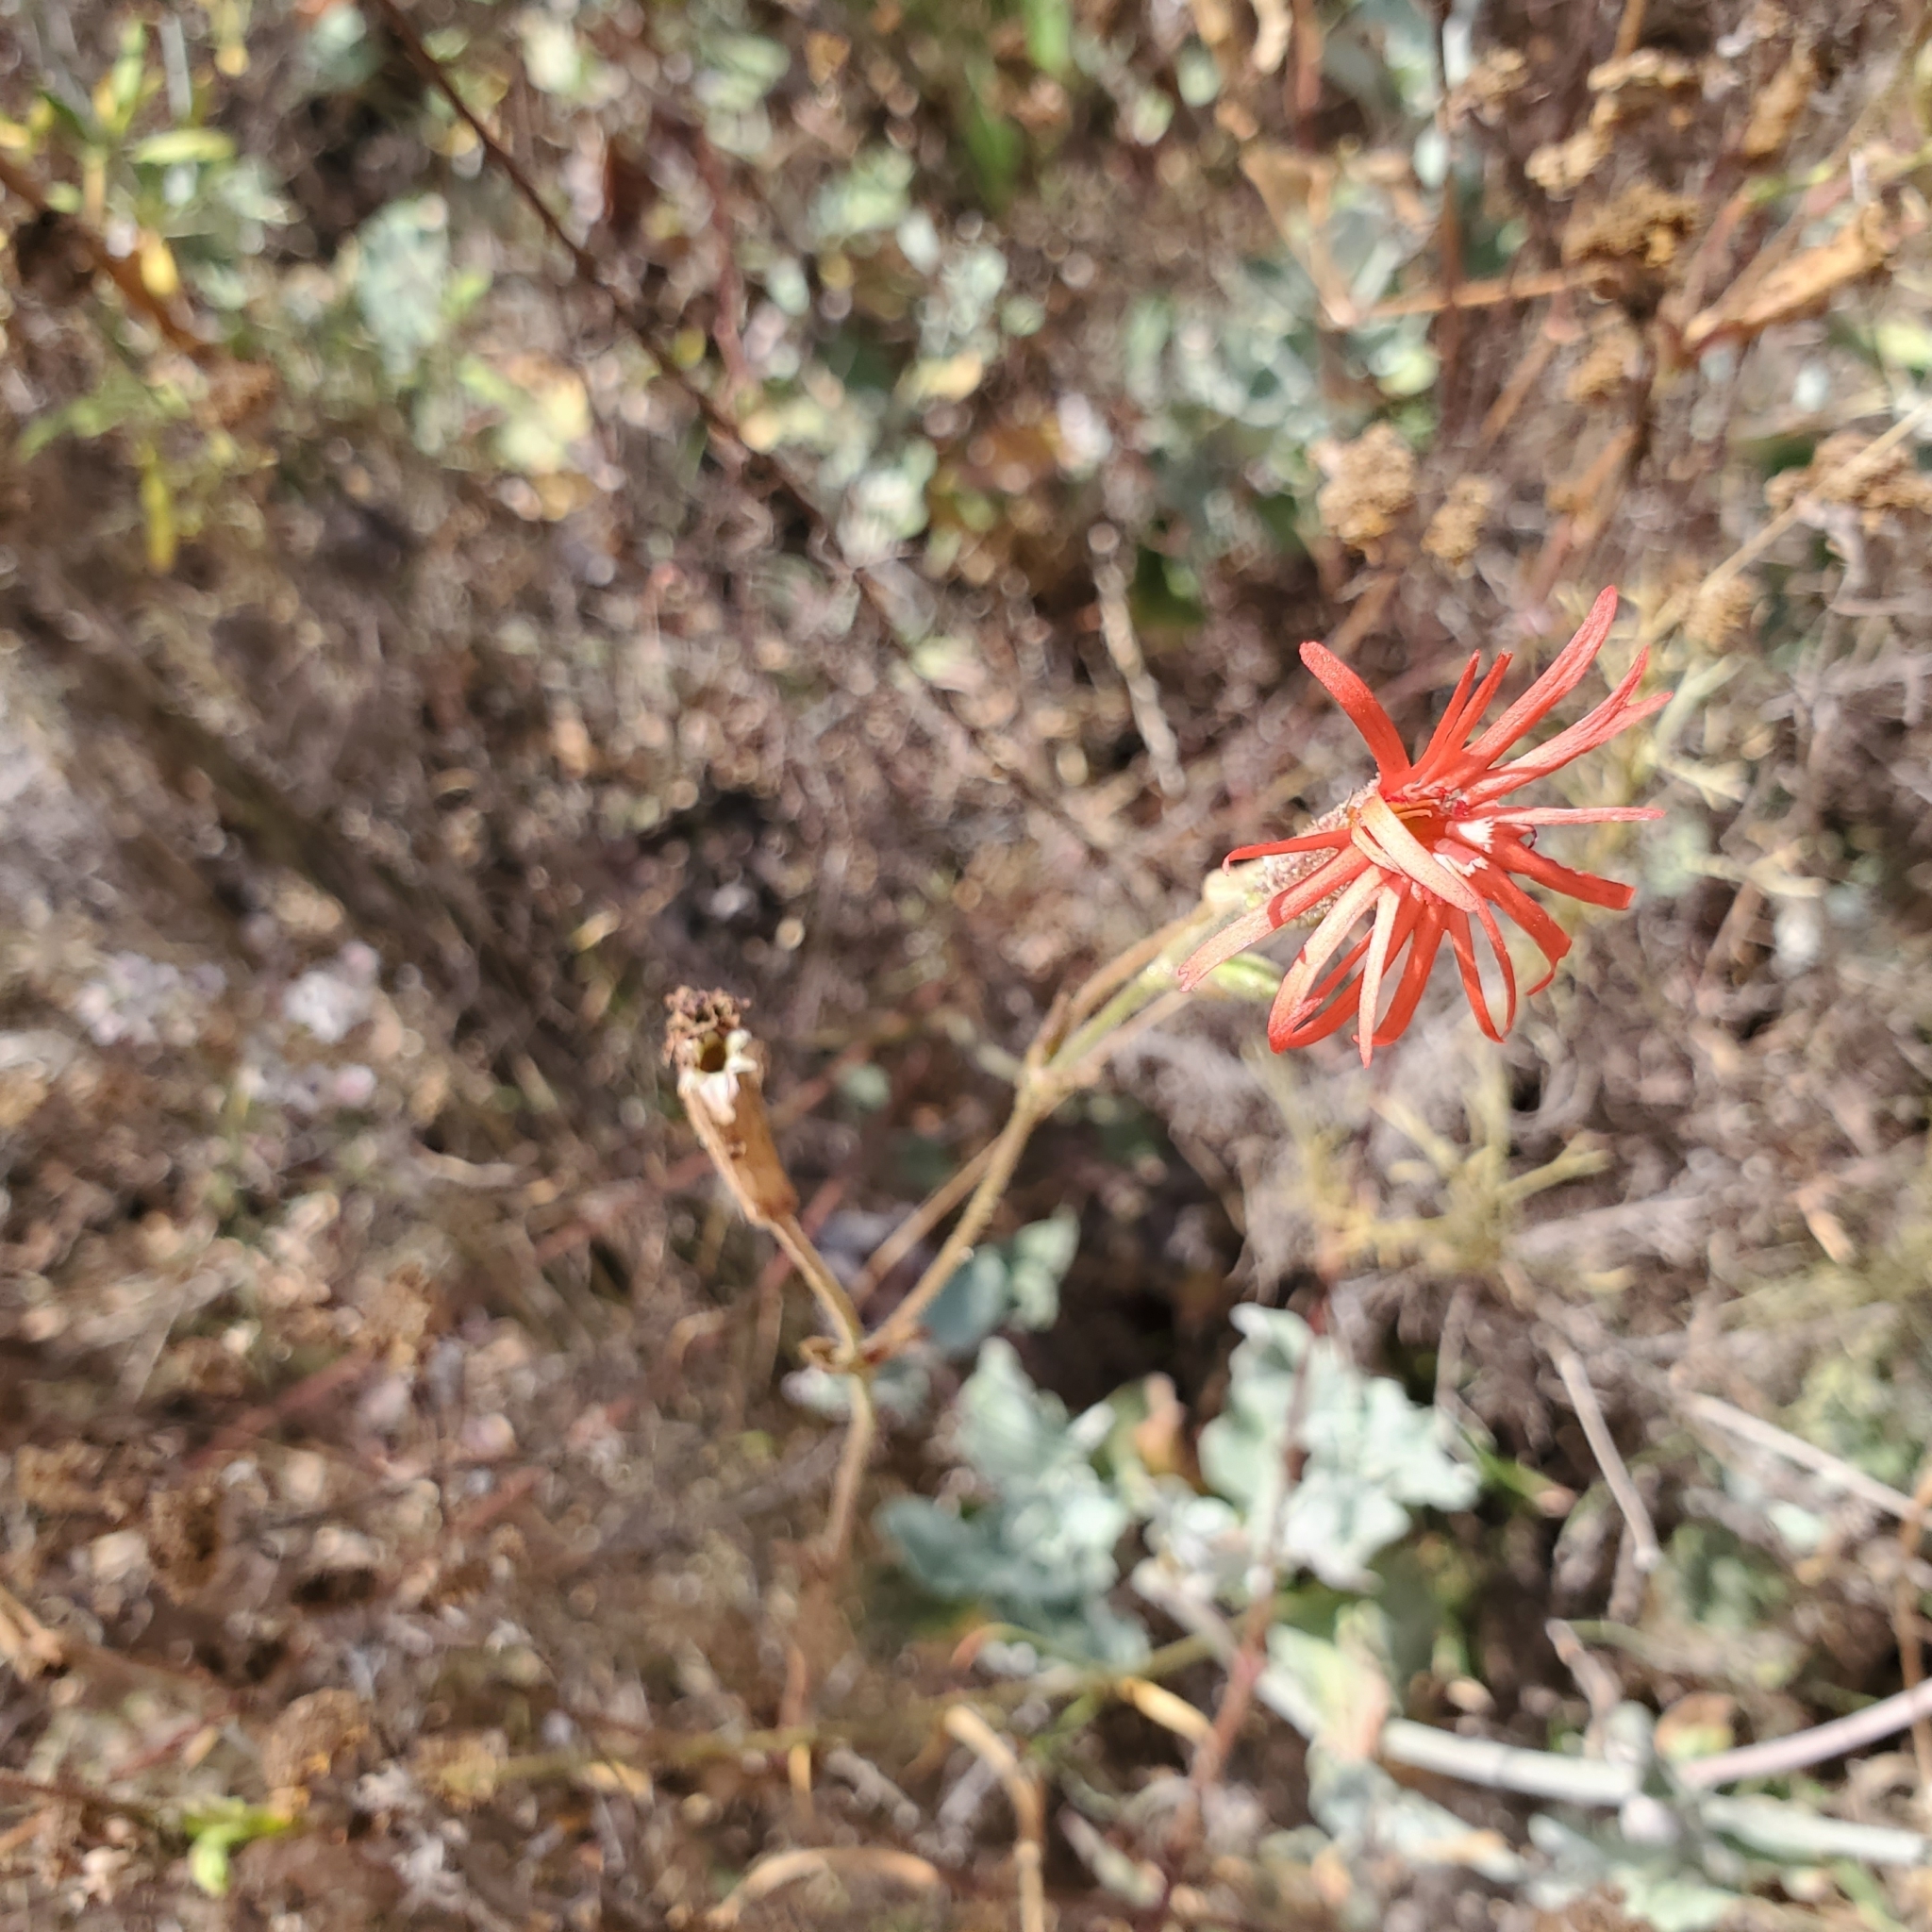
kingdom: Plantae
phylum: Tracheophyta
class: Magnoliopsida
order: Caryophyllales
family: Caryophyllaceae
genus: Silene
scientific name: Silene laciniata
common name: Indian-pink
